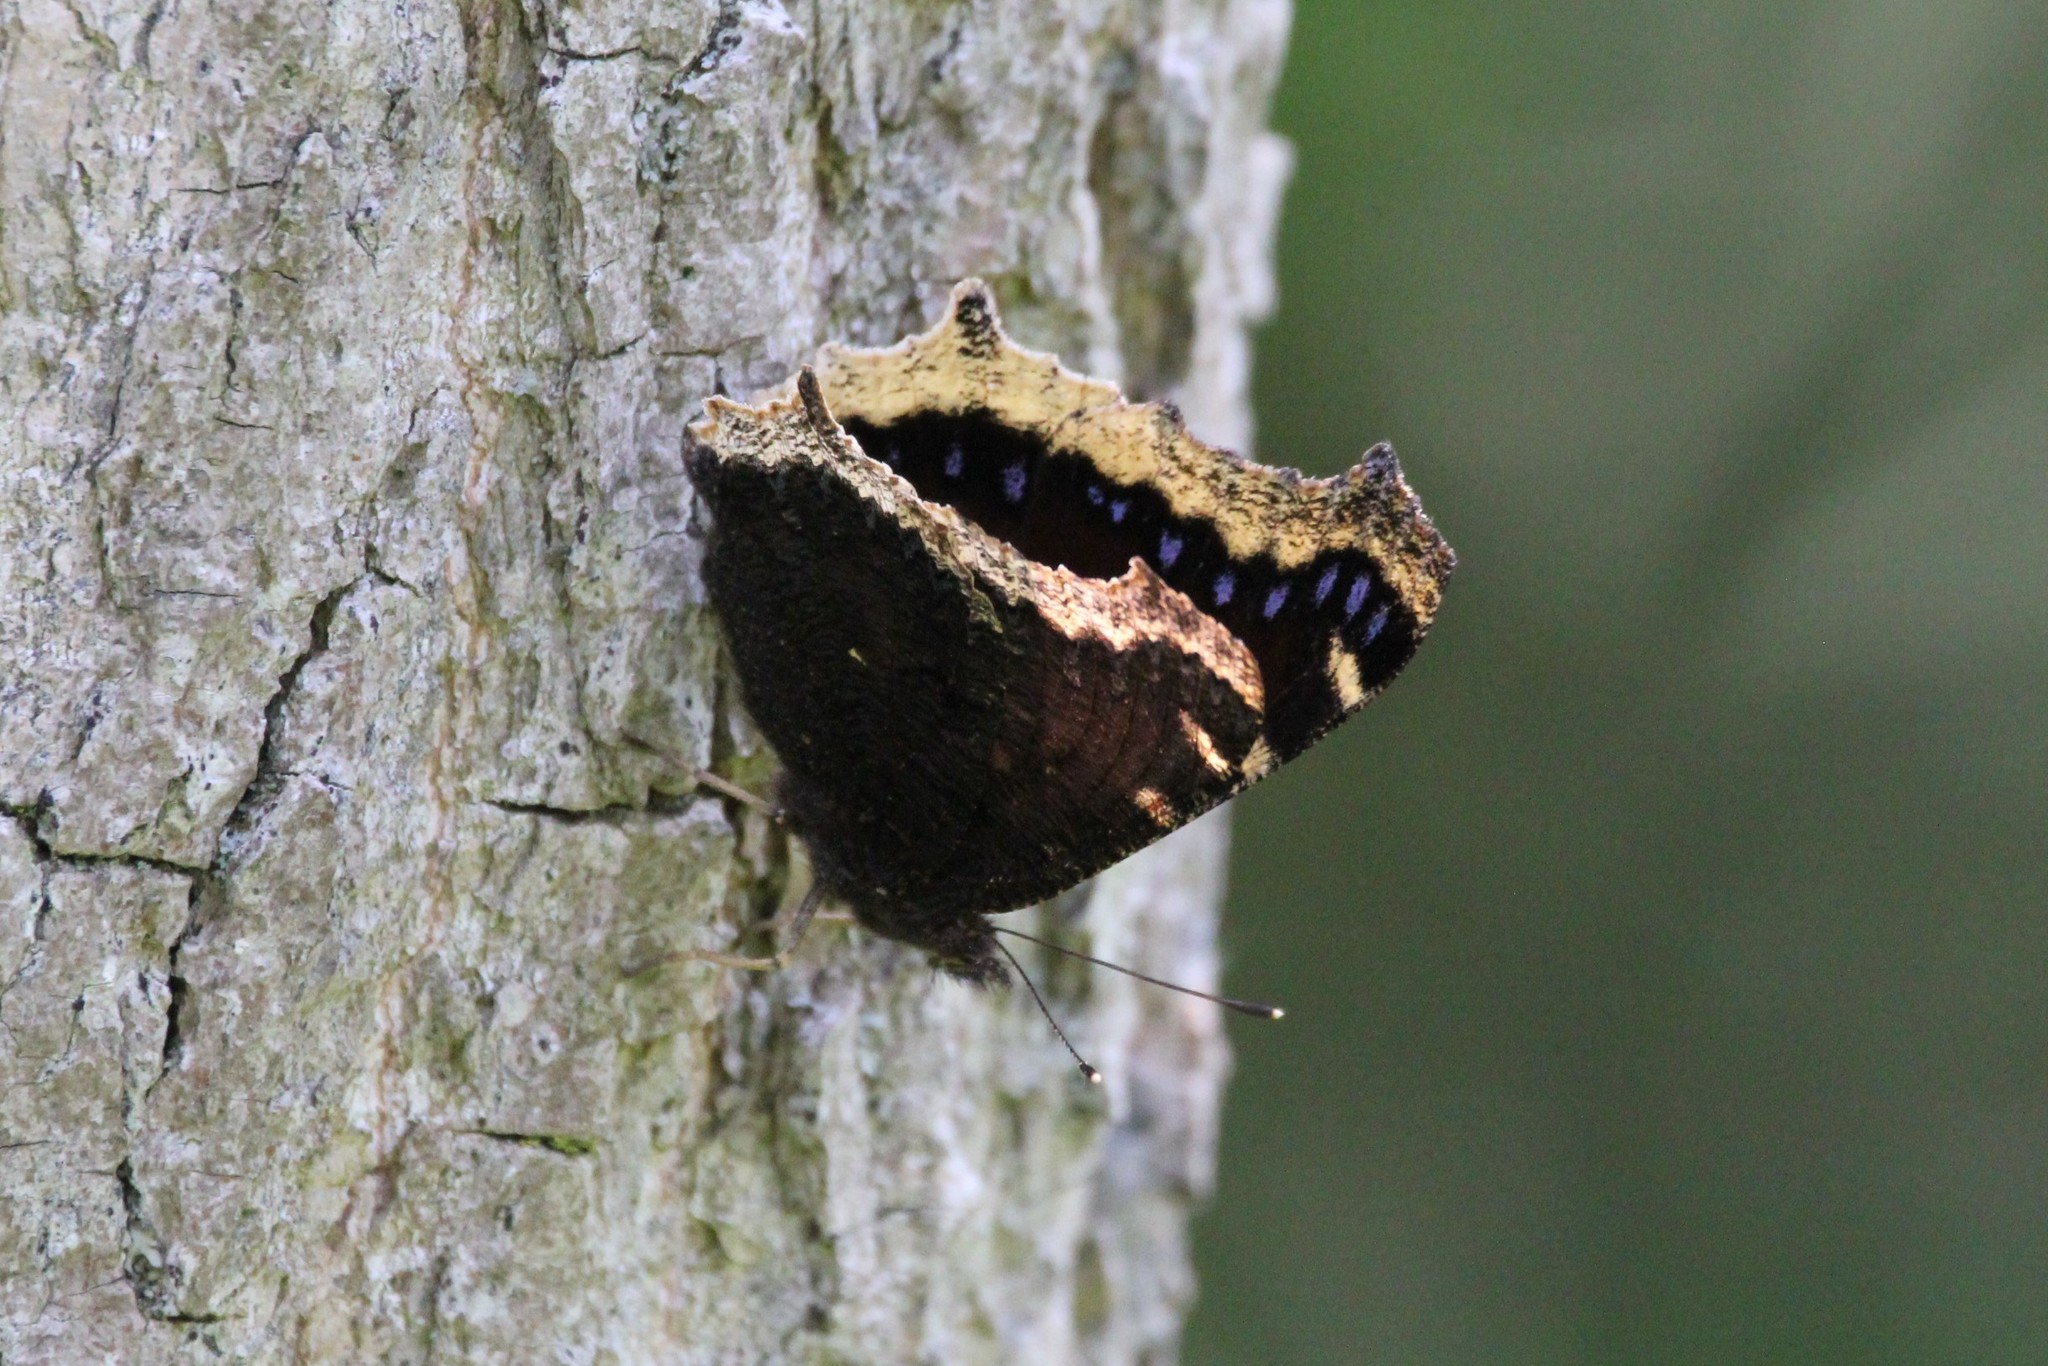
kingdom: Animalia
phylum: Arthropoda
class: Insecta
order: Lepidoptera
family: Nymphalidae
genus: Nymphalis
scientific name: Nymphalis antiopa
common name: Camberwell beauty
